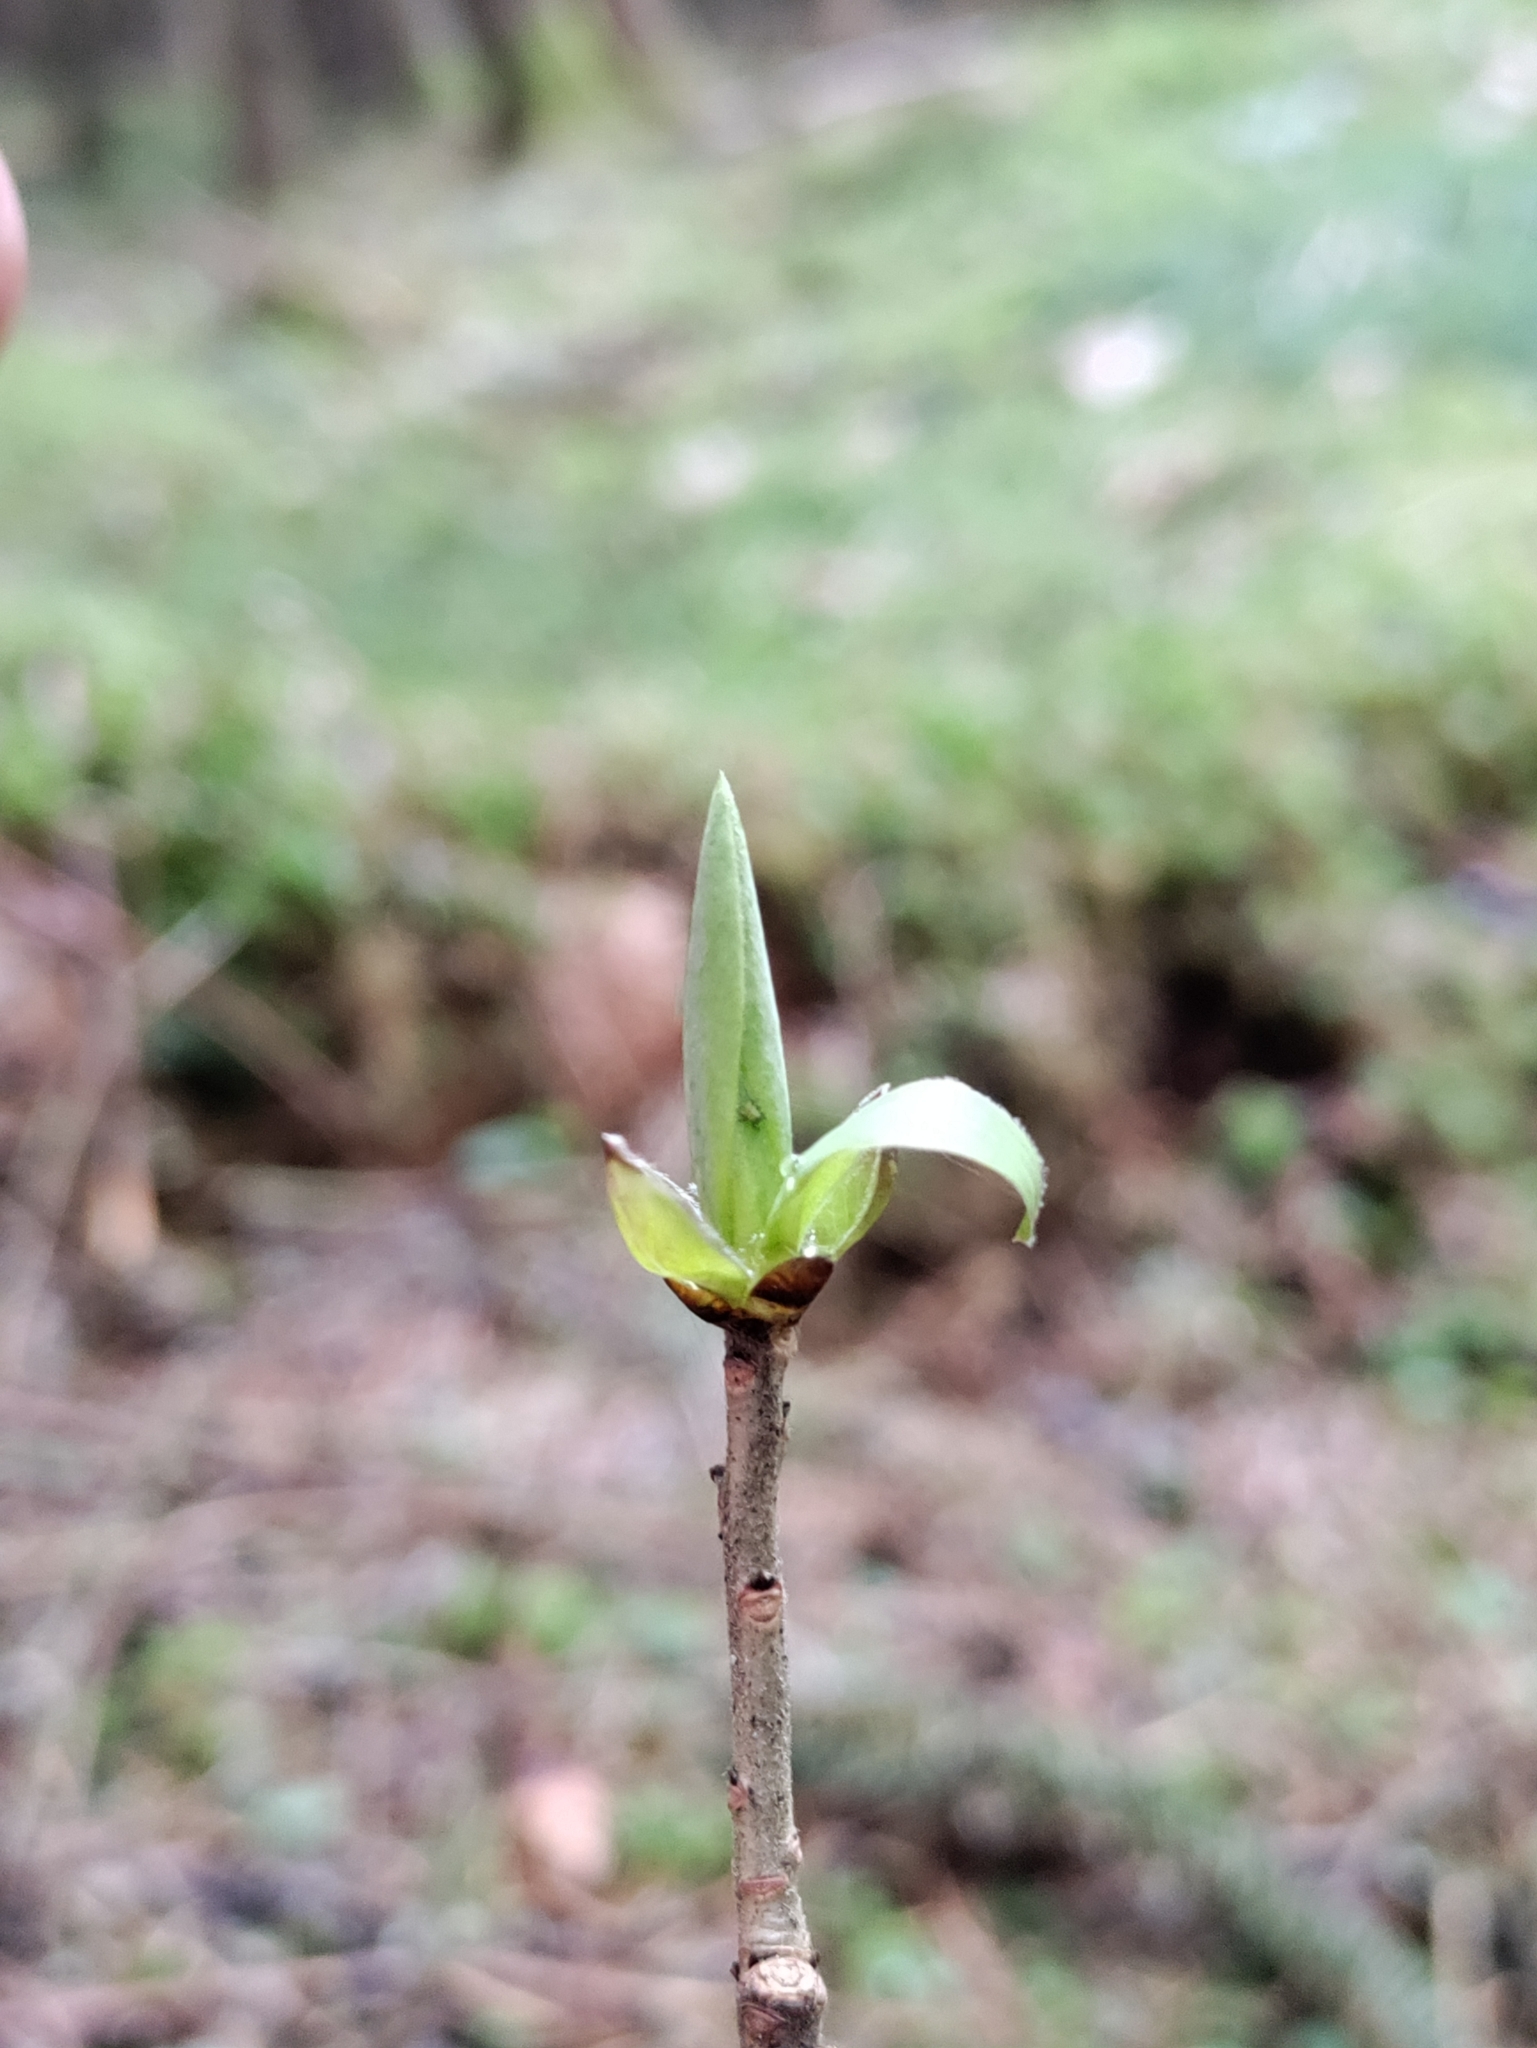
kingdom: Plantae
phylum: Tracheophyta
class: Magnoliopsida
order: Malvales
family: Thymelaeaceae
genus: Daphne
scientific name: Daphne mezereum
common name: Mezereon
